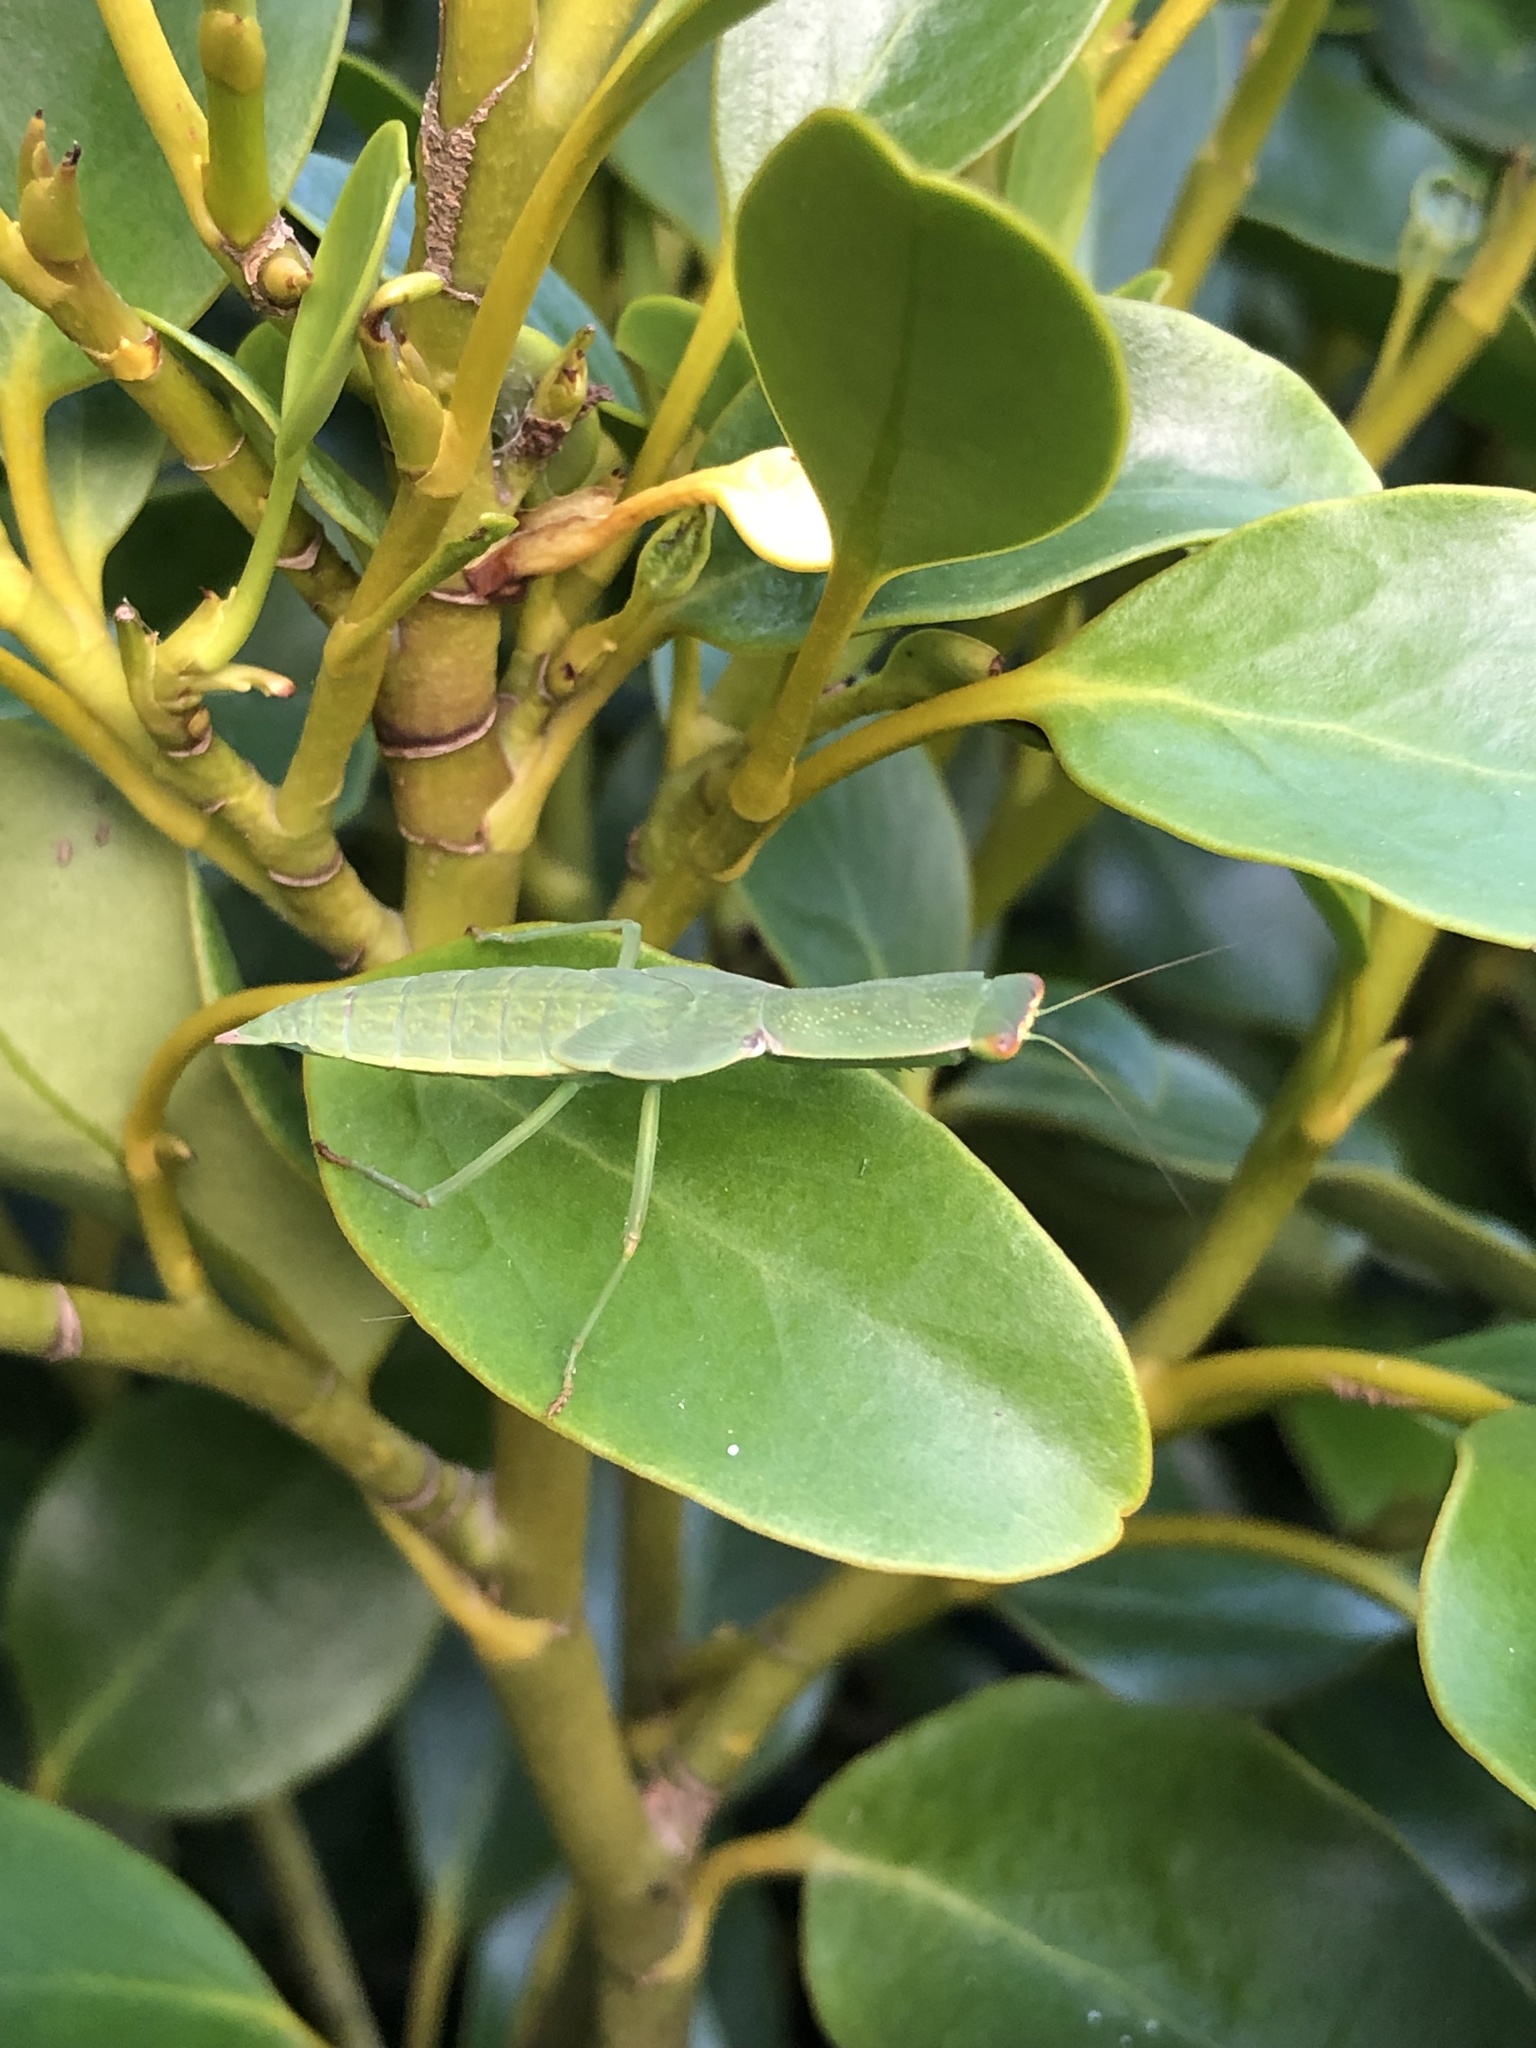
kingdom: Animalia
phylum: Arthropoda
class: Insecta
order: Mantodea
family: Mantidae
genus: Orthodera
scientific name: Orthodera novaezealandiae
